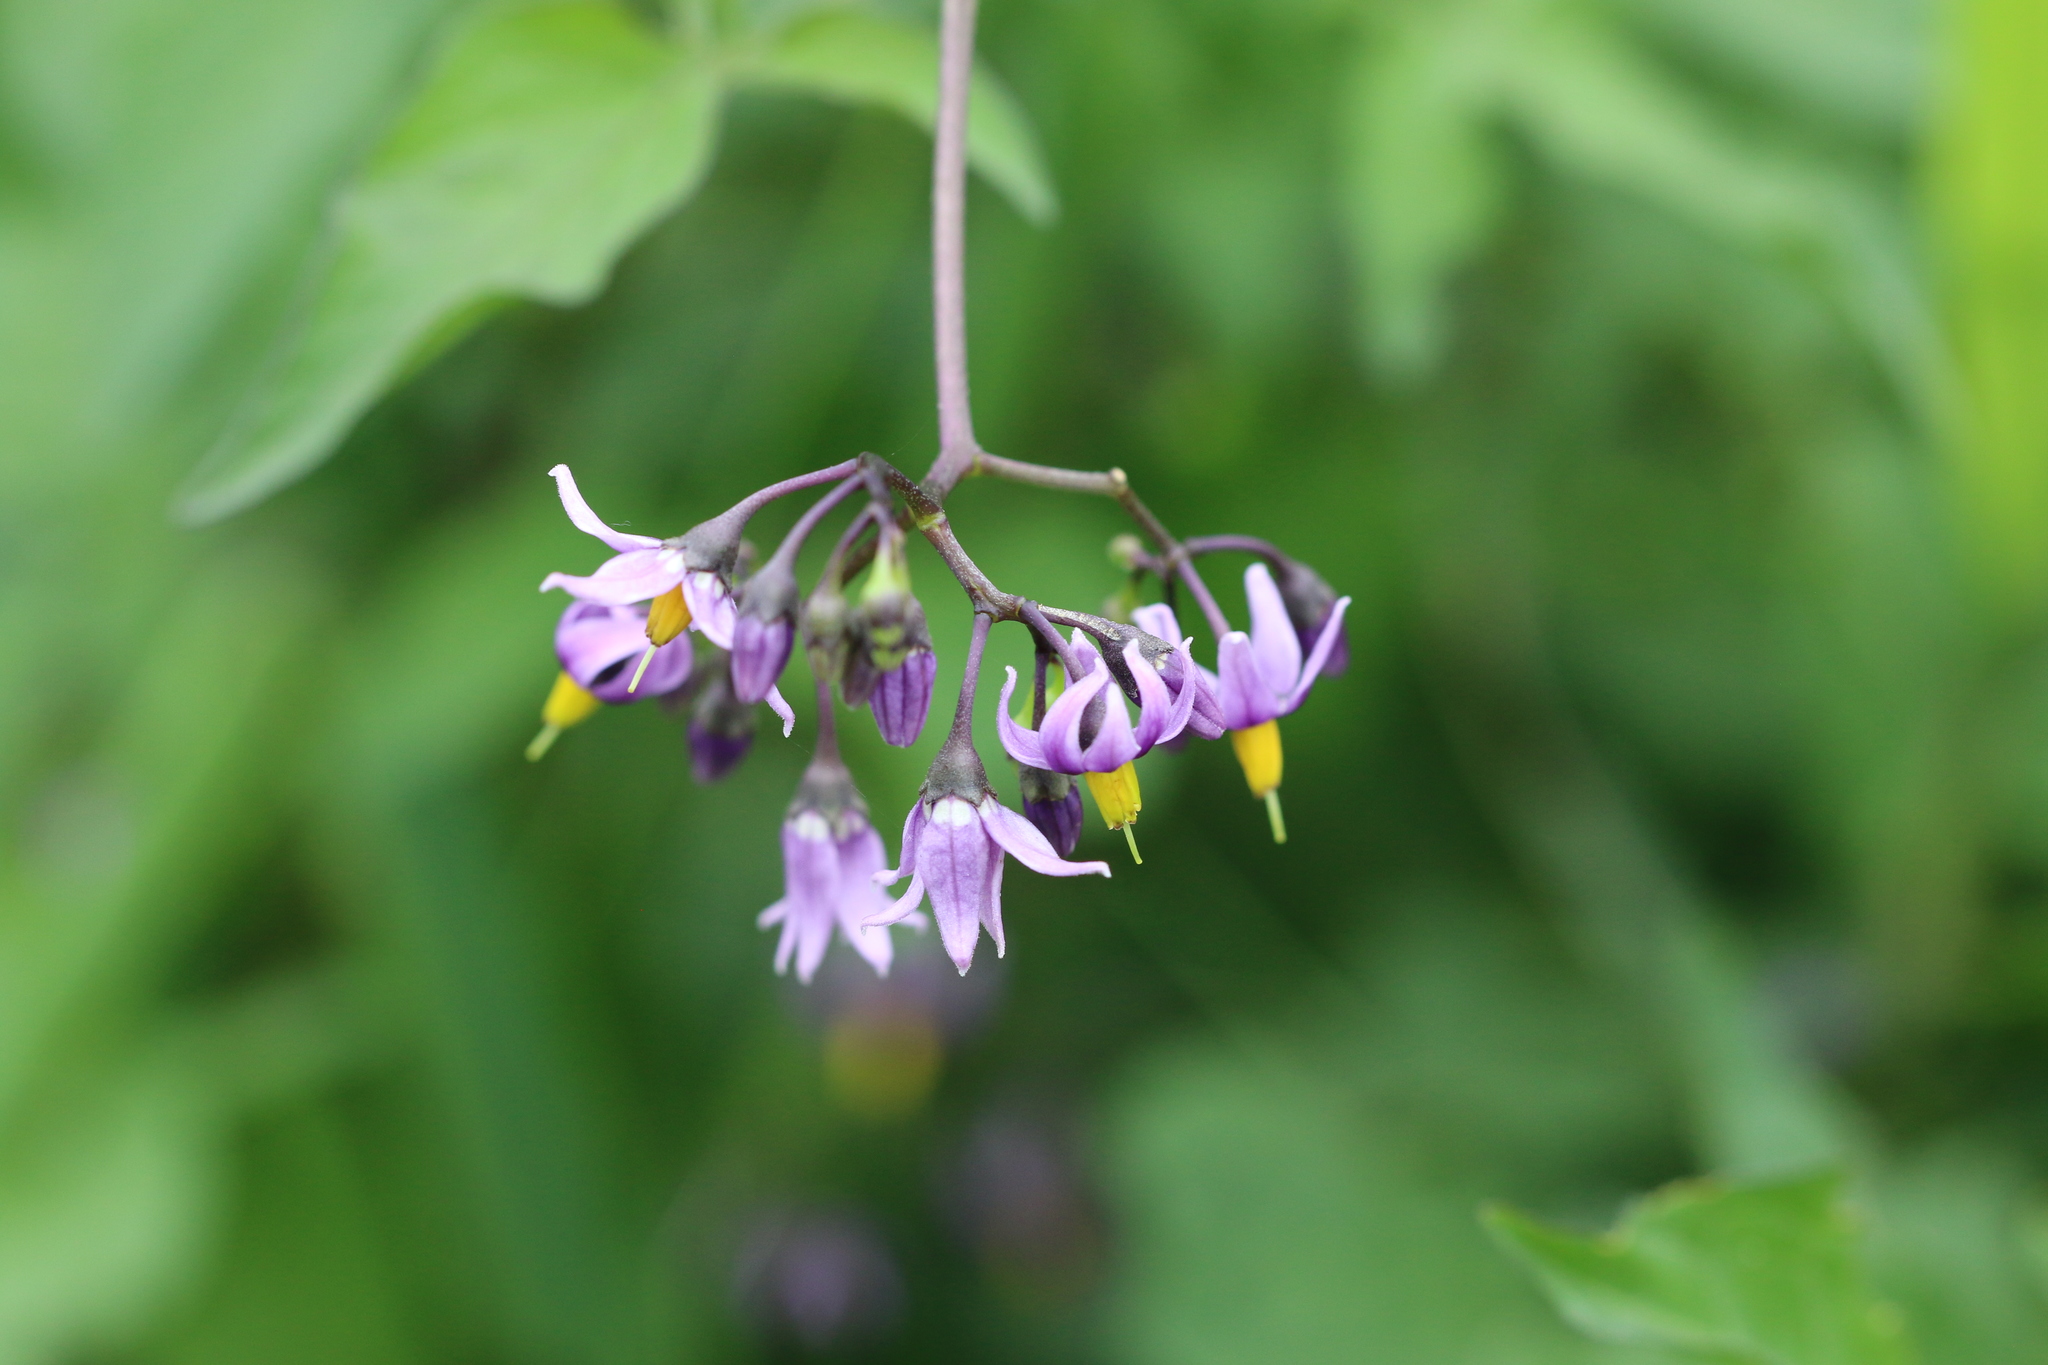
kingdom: Plantae
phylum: Tracheophyta
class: Magnoliopsida
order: Solanales
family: Solanaceae
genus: Solanum
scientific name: Solanum dulcamara
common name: Climbing nightshade
